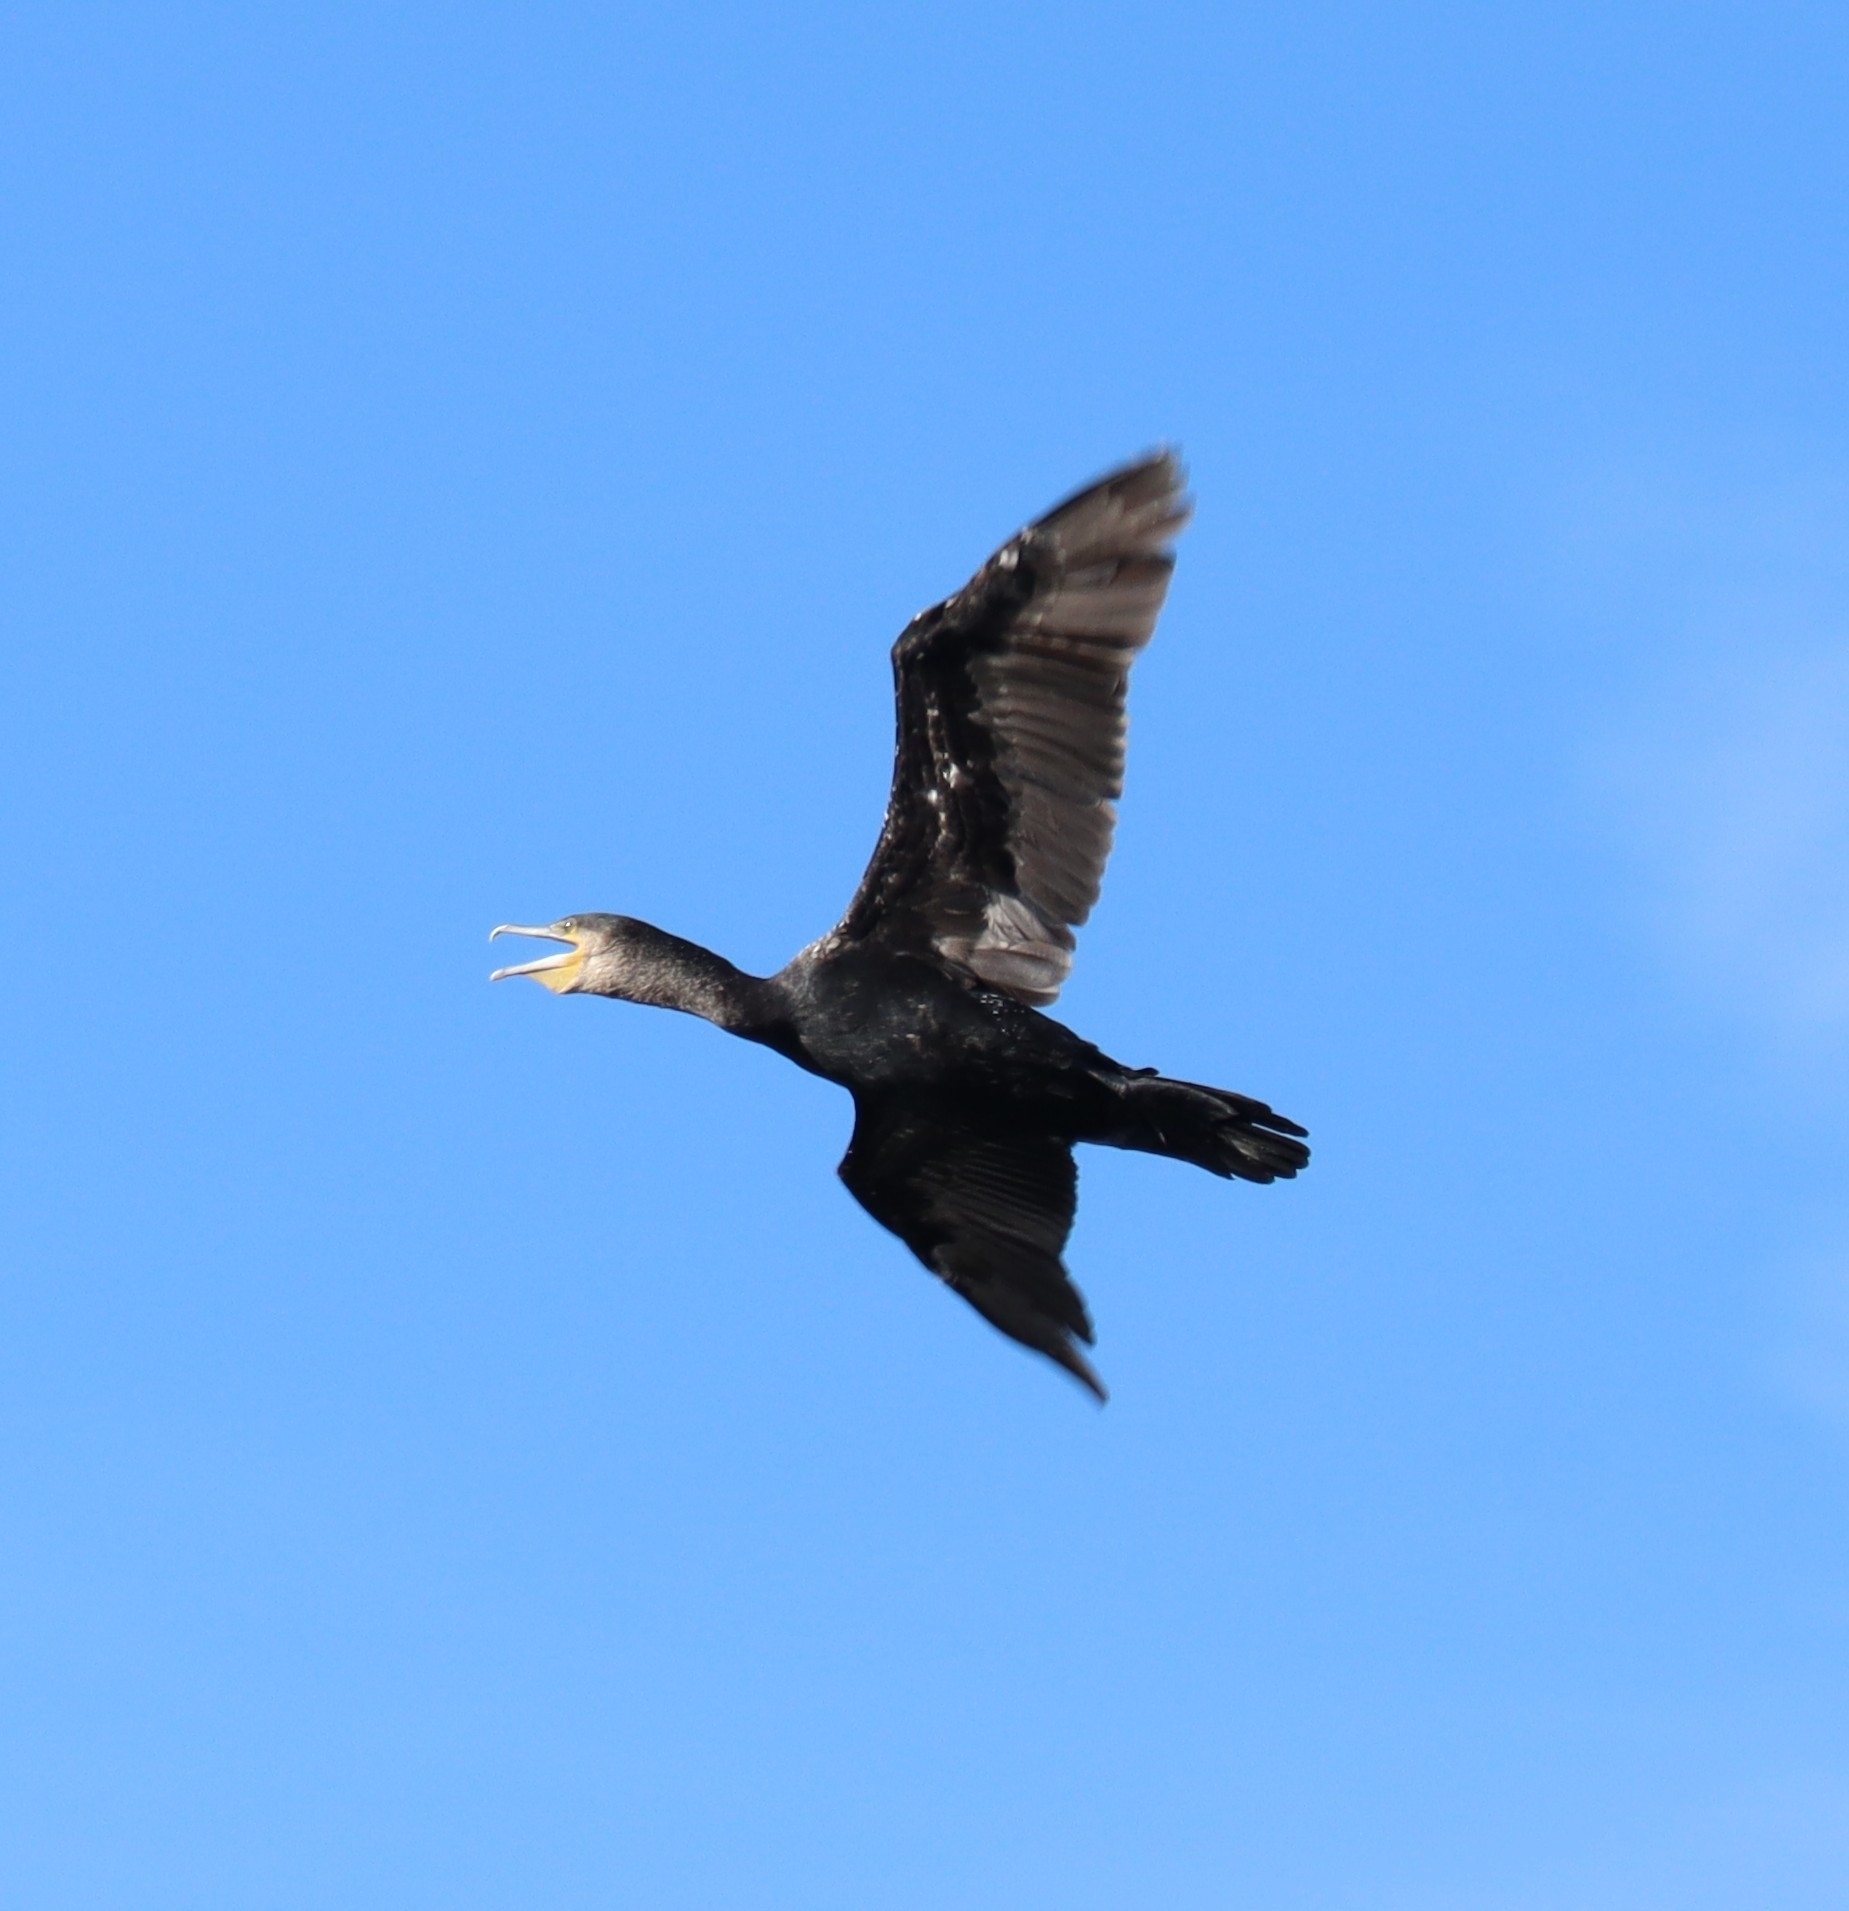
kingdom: Animalia
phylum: Chordata
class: Aves
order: Suliformes
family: Phalacrocoracidae
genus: Phalacrocorax
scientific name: Phalacrocorax carbo
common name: Great cormorant
